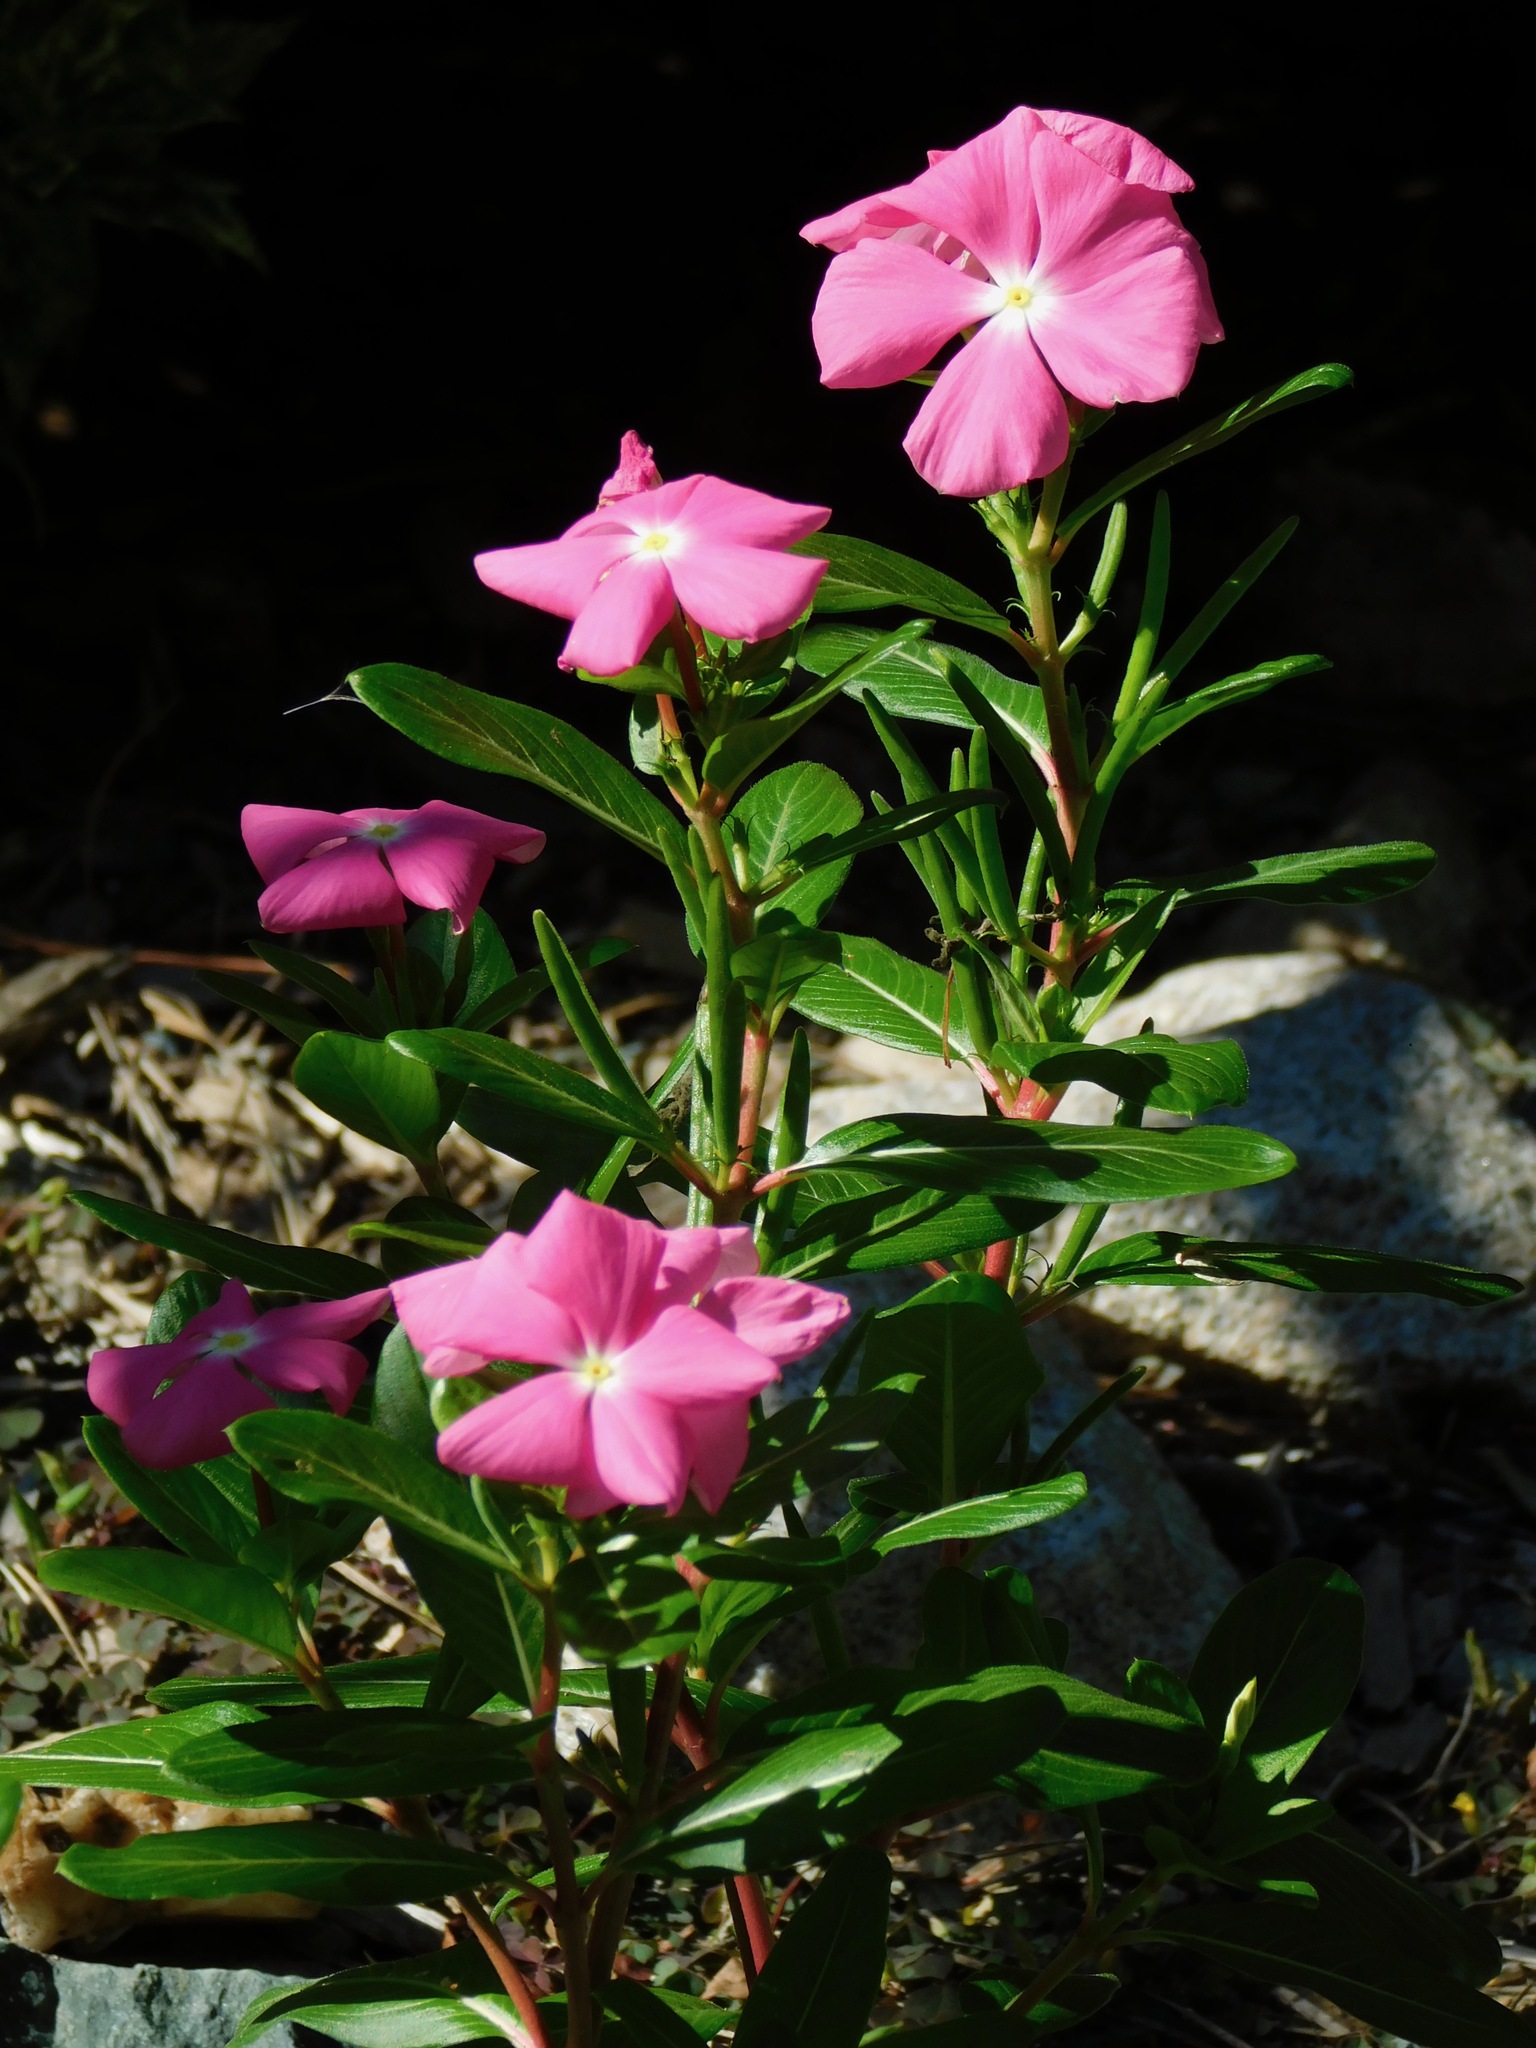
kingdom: Plantae
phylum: Tracheophyta
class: Magnoliopsida
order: Gentianales
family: Apocynaceae
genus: Catharanthus
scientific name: Catharanthus roseus
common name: Madagascar periwinkle
